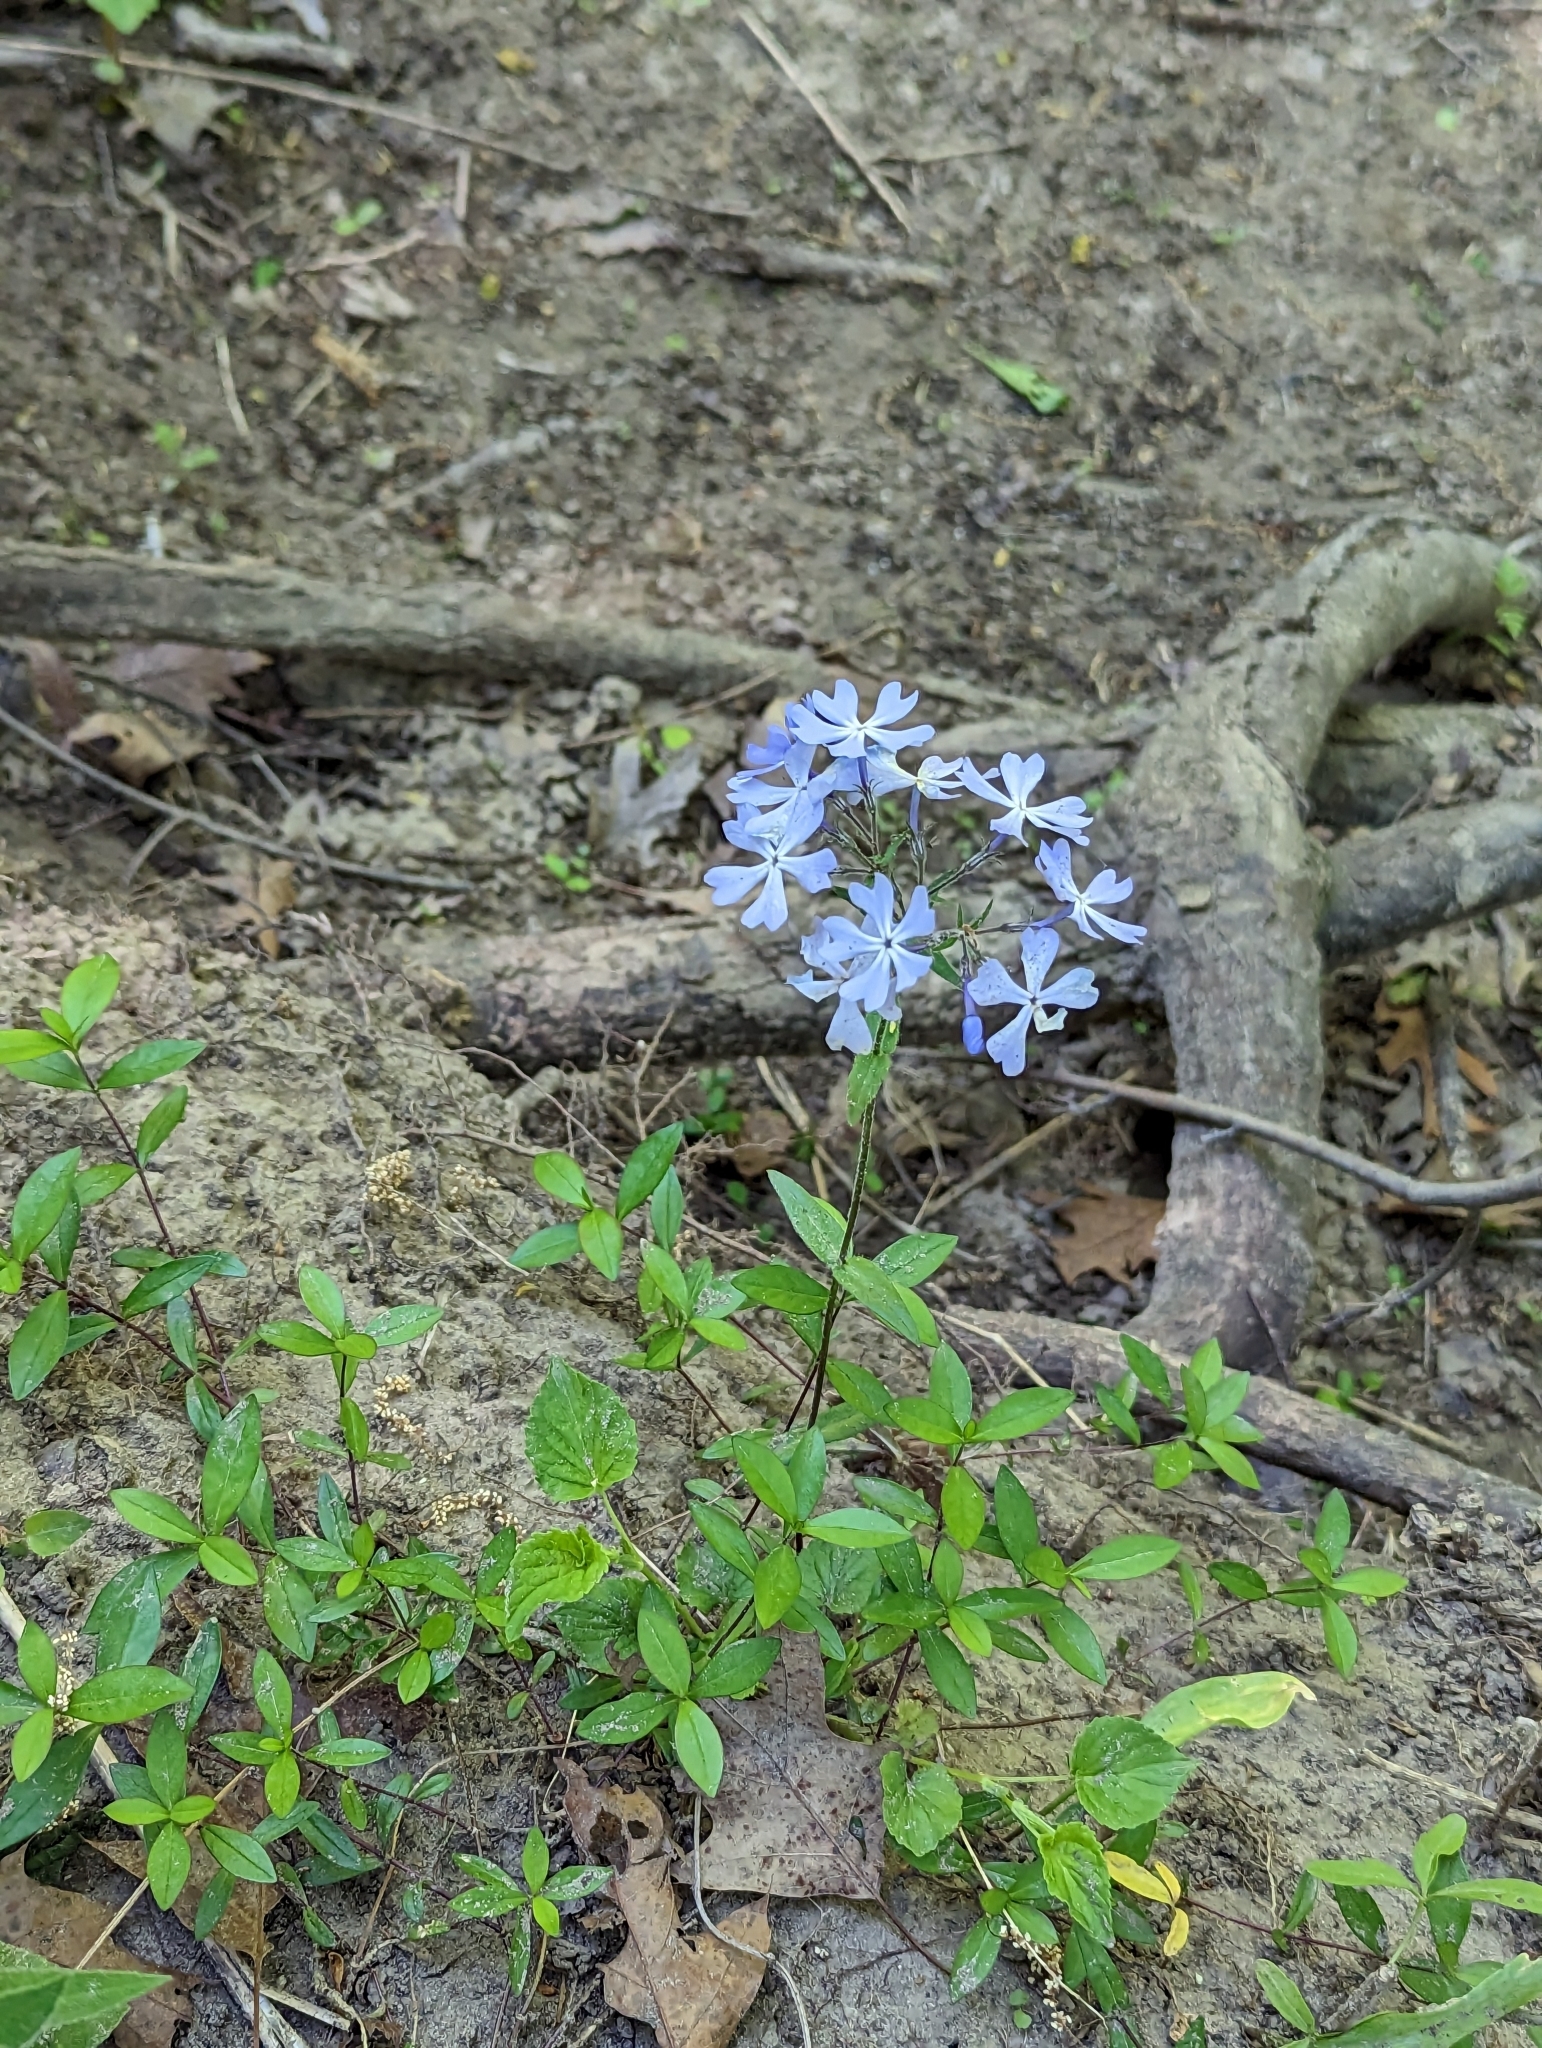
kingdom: Plantae
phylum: Tracheophyta
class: Magnoliopsida
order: Ericales
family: Polemoniaceae
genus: Phlox
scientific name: Phlox divaricata
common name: Blue phlox
